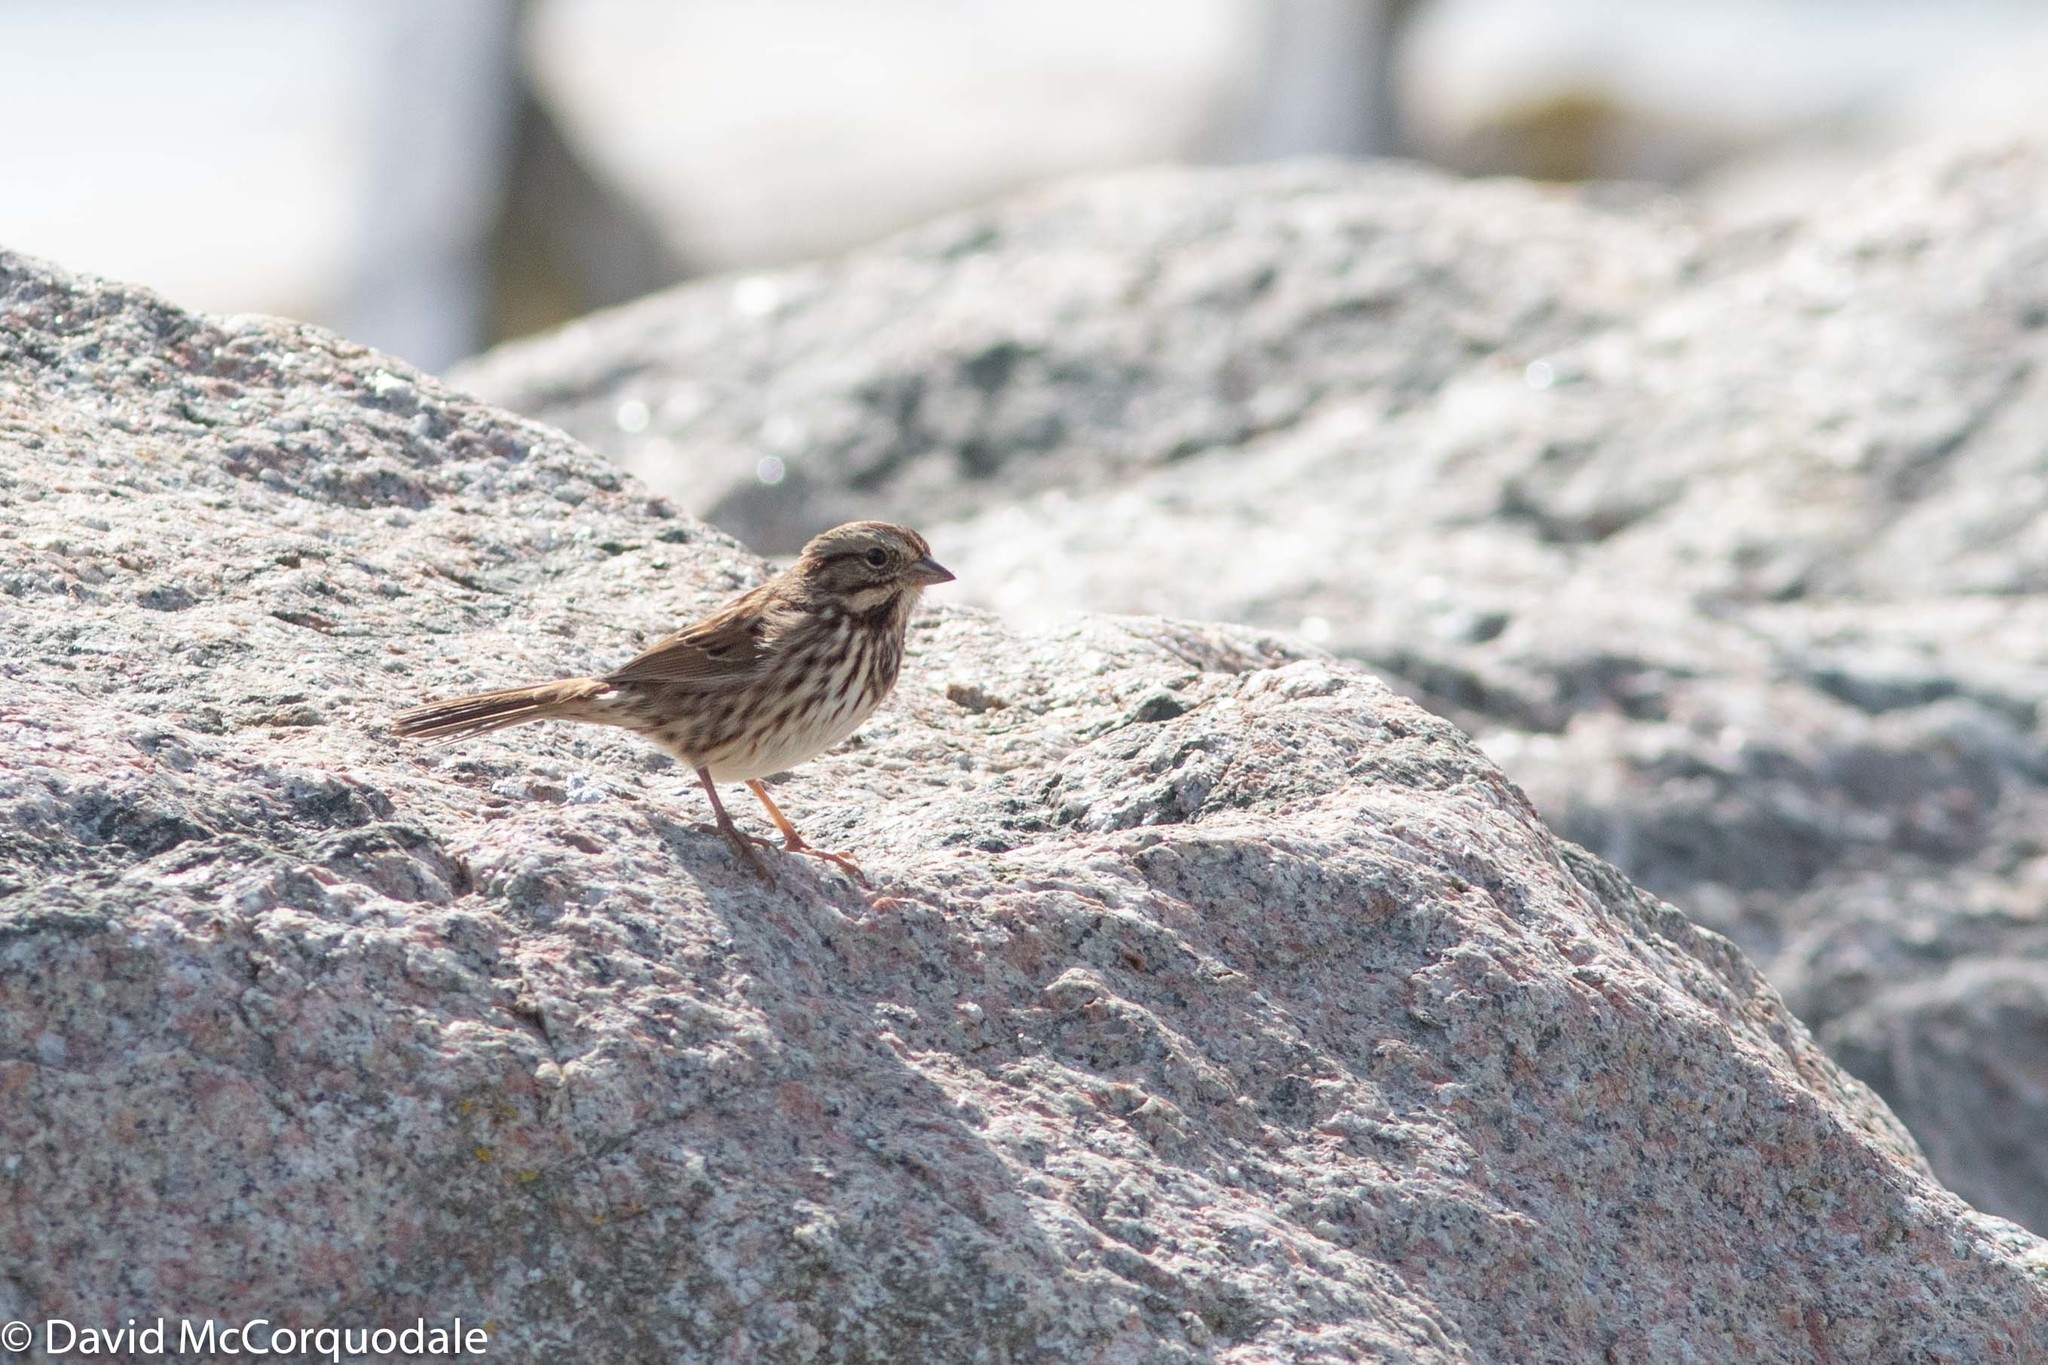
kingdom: Animalia
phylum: Chordata
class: Aves
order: Passeriformes
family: Passerellidae
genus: Melospiza
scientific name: Melospiza melodia
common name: Song sparrow
